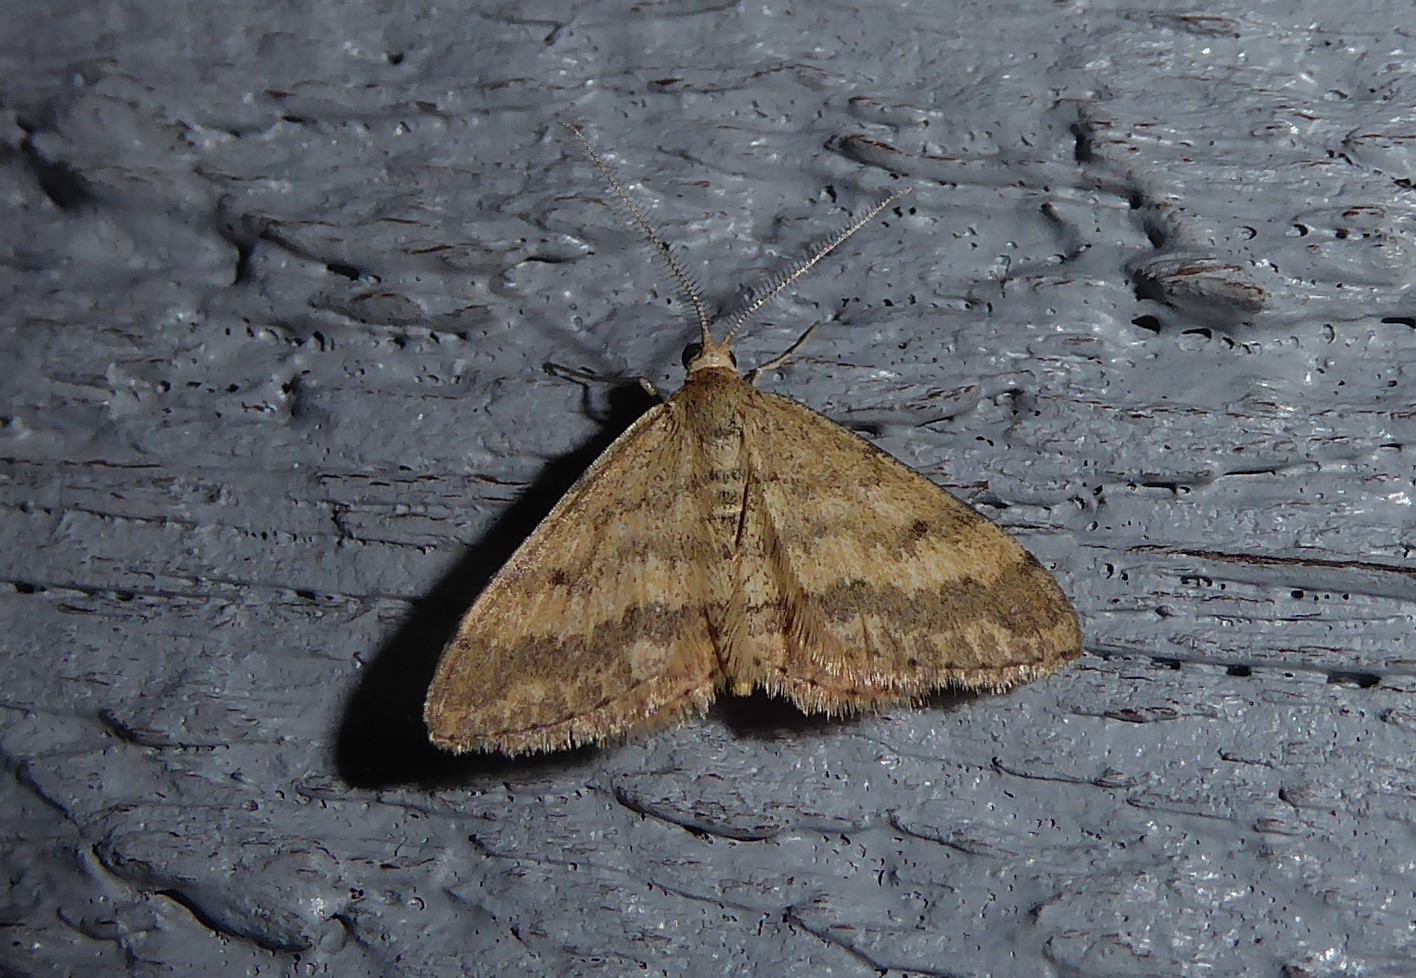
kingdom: Animalia
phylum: Arthropoda
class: Insecta
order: Lepidoptera
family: Geometridae
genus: Scopula
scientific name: Scopula rubraria
